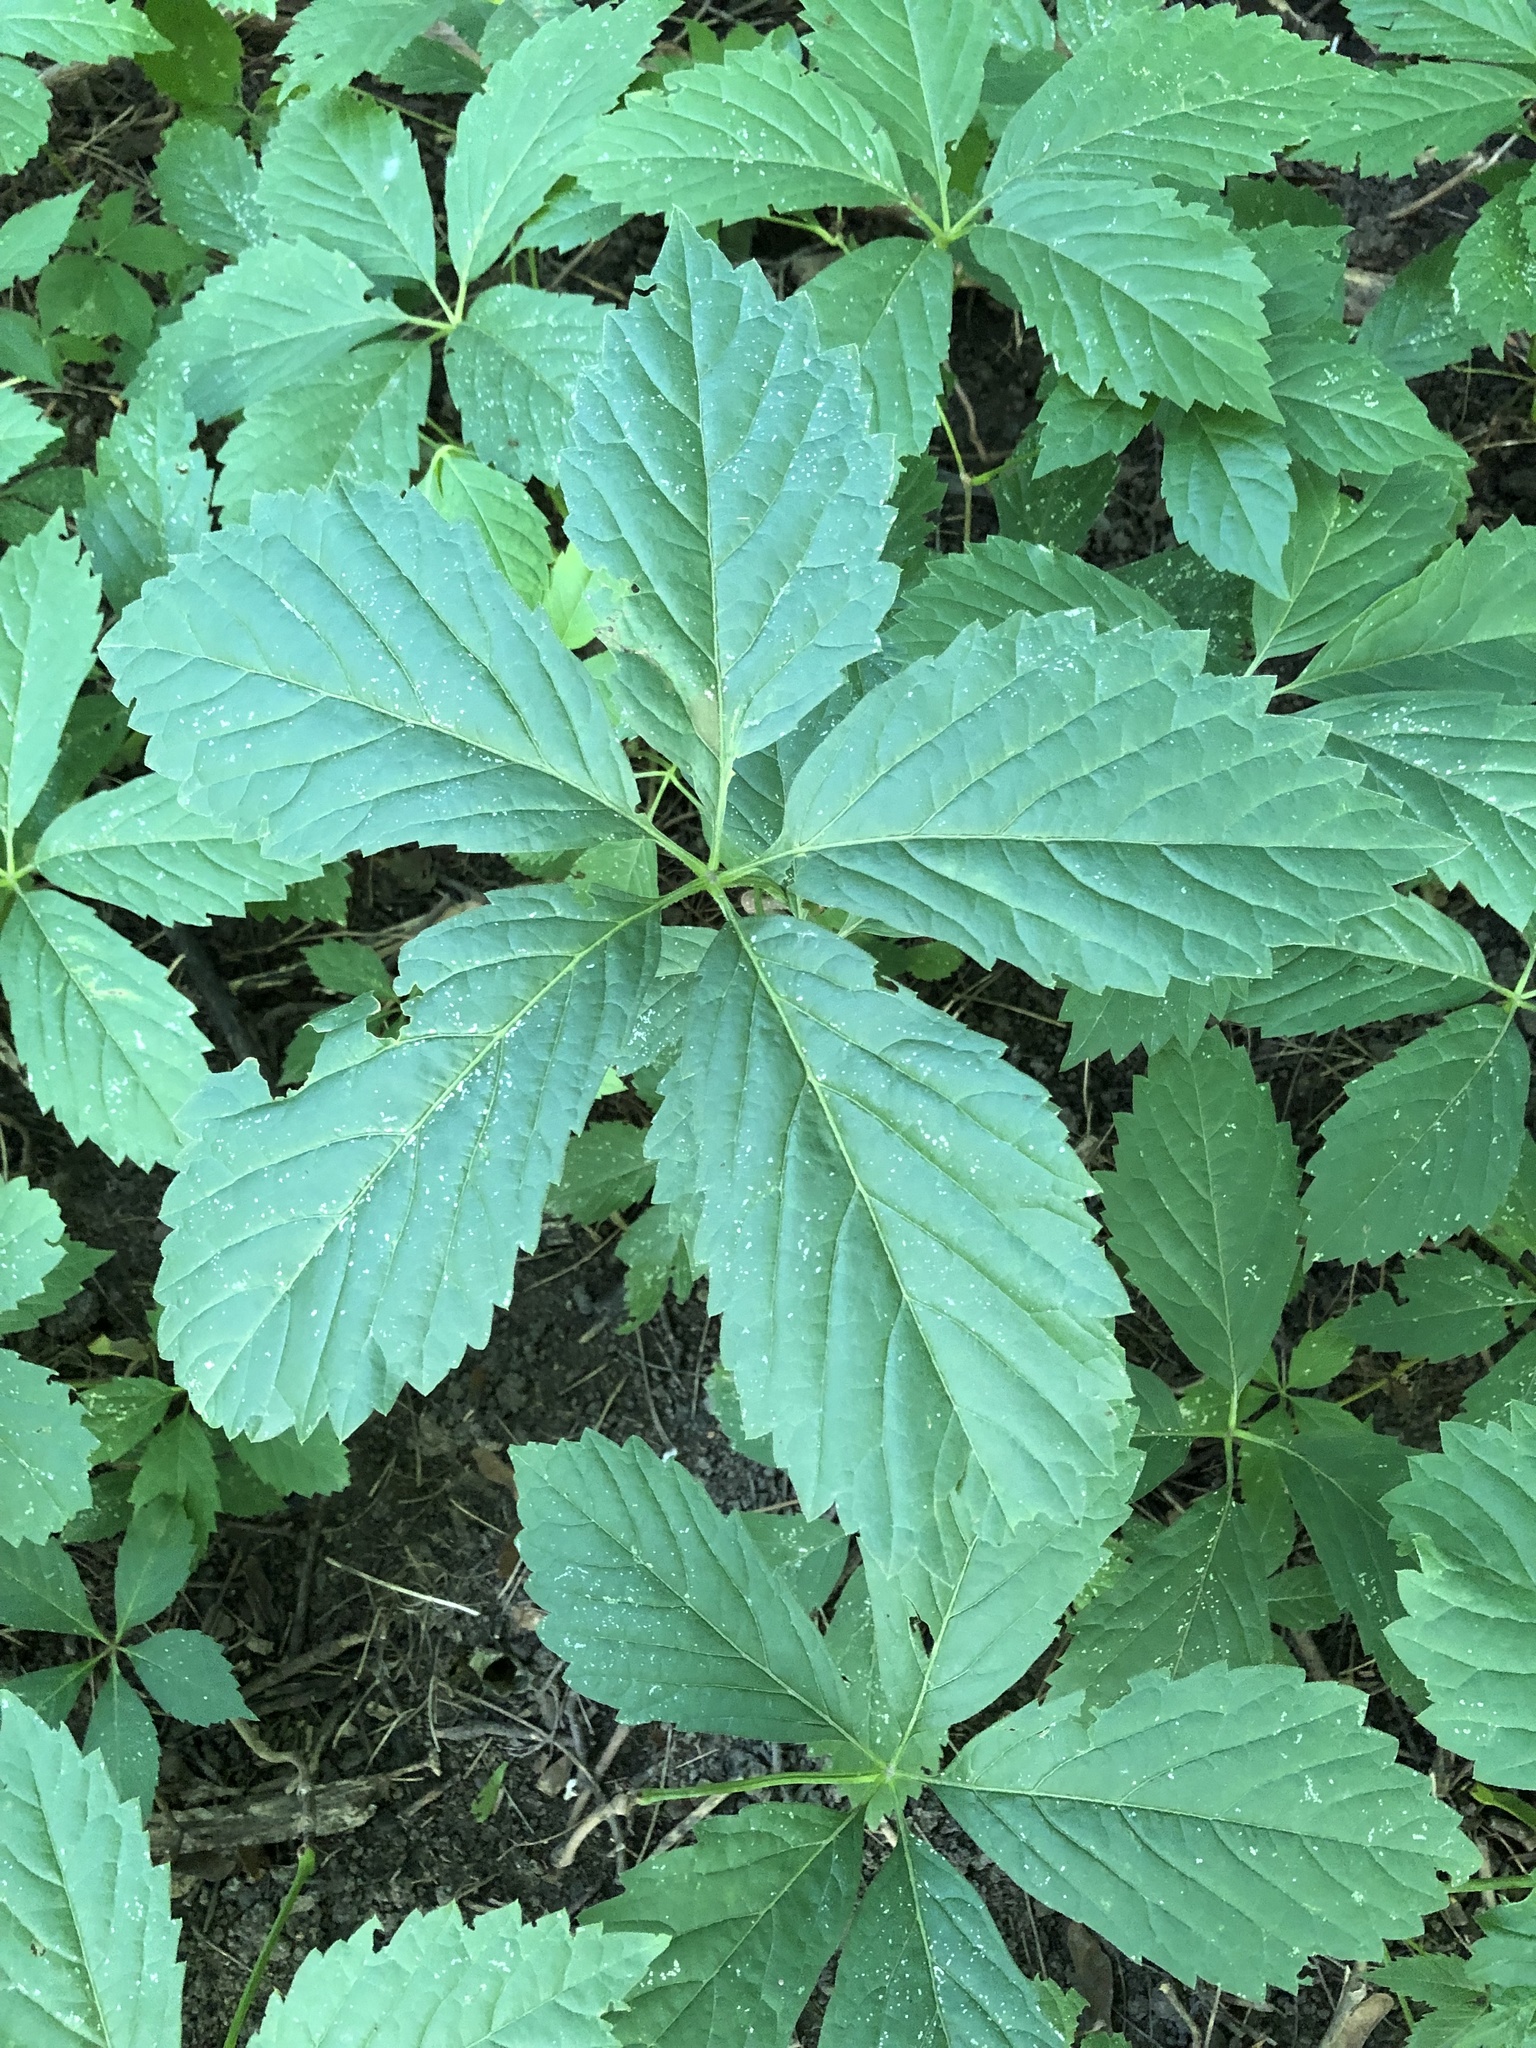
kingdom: Plantae
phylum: Tracheophyta
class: Magnoliopsida
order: Vitales
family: Vitaceae
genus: Parthenocissus
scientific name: Parthenocissus quinquefolia
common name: Virginia-creeper
